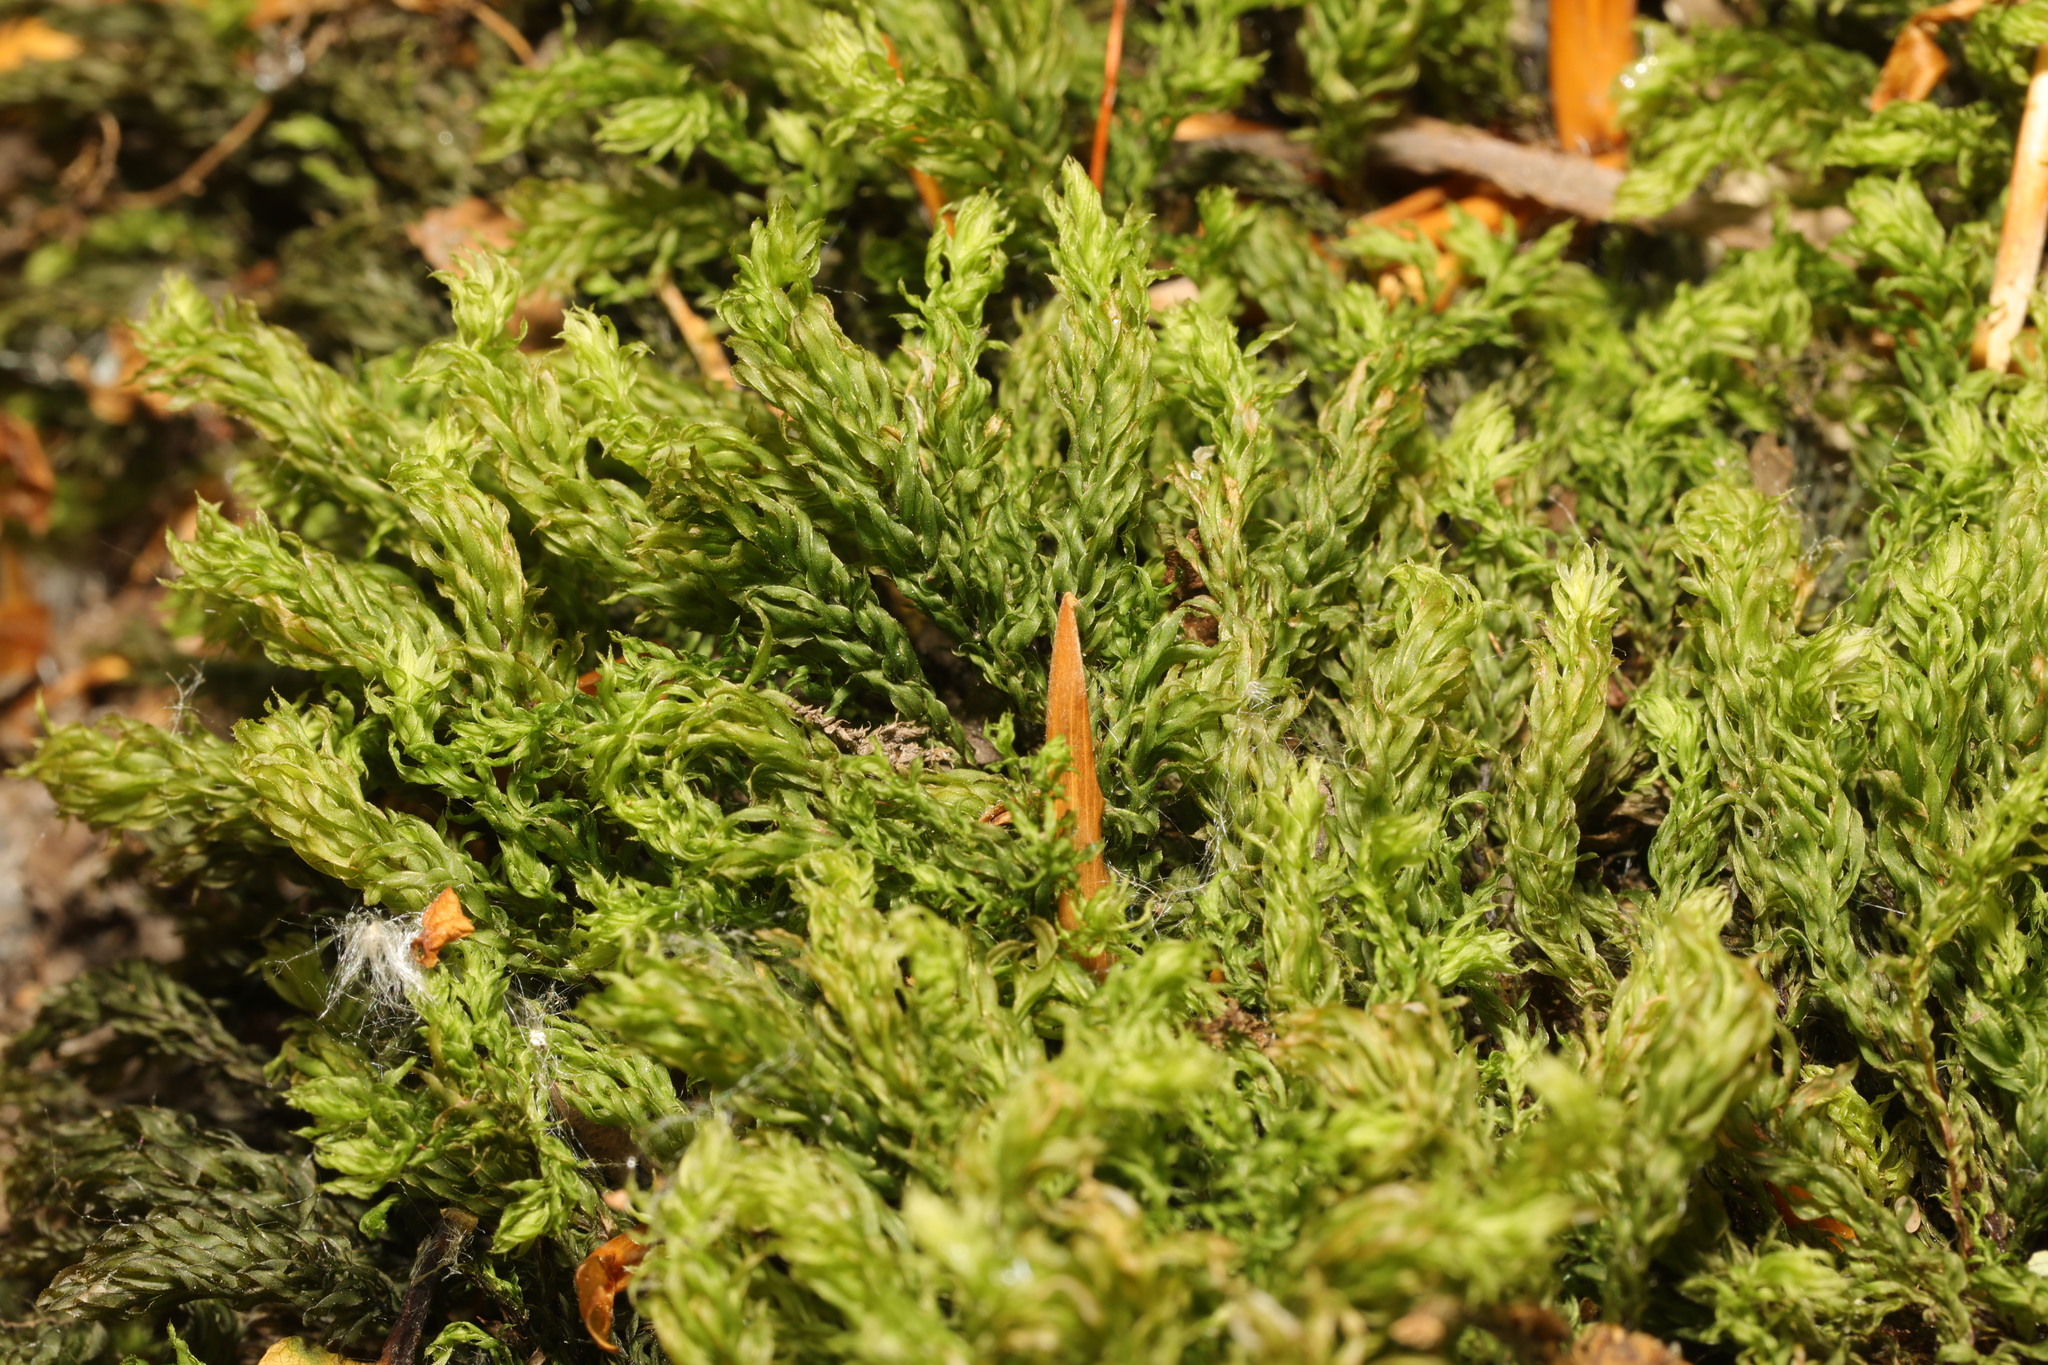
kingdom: Plantae
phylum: Bryophyta
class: Bryopsida
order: Bryales
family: Mniaceae
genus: Mnium
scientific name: Mnium hornum
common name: Swan's-neck leafy moss
